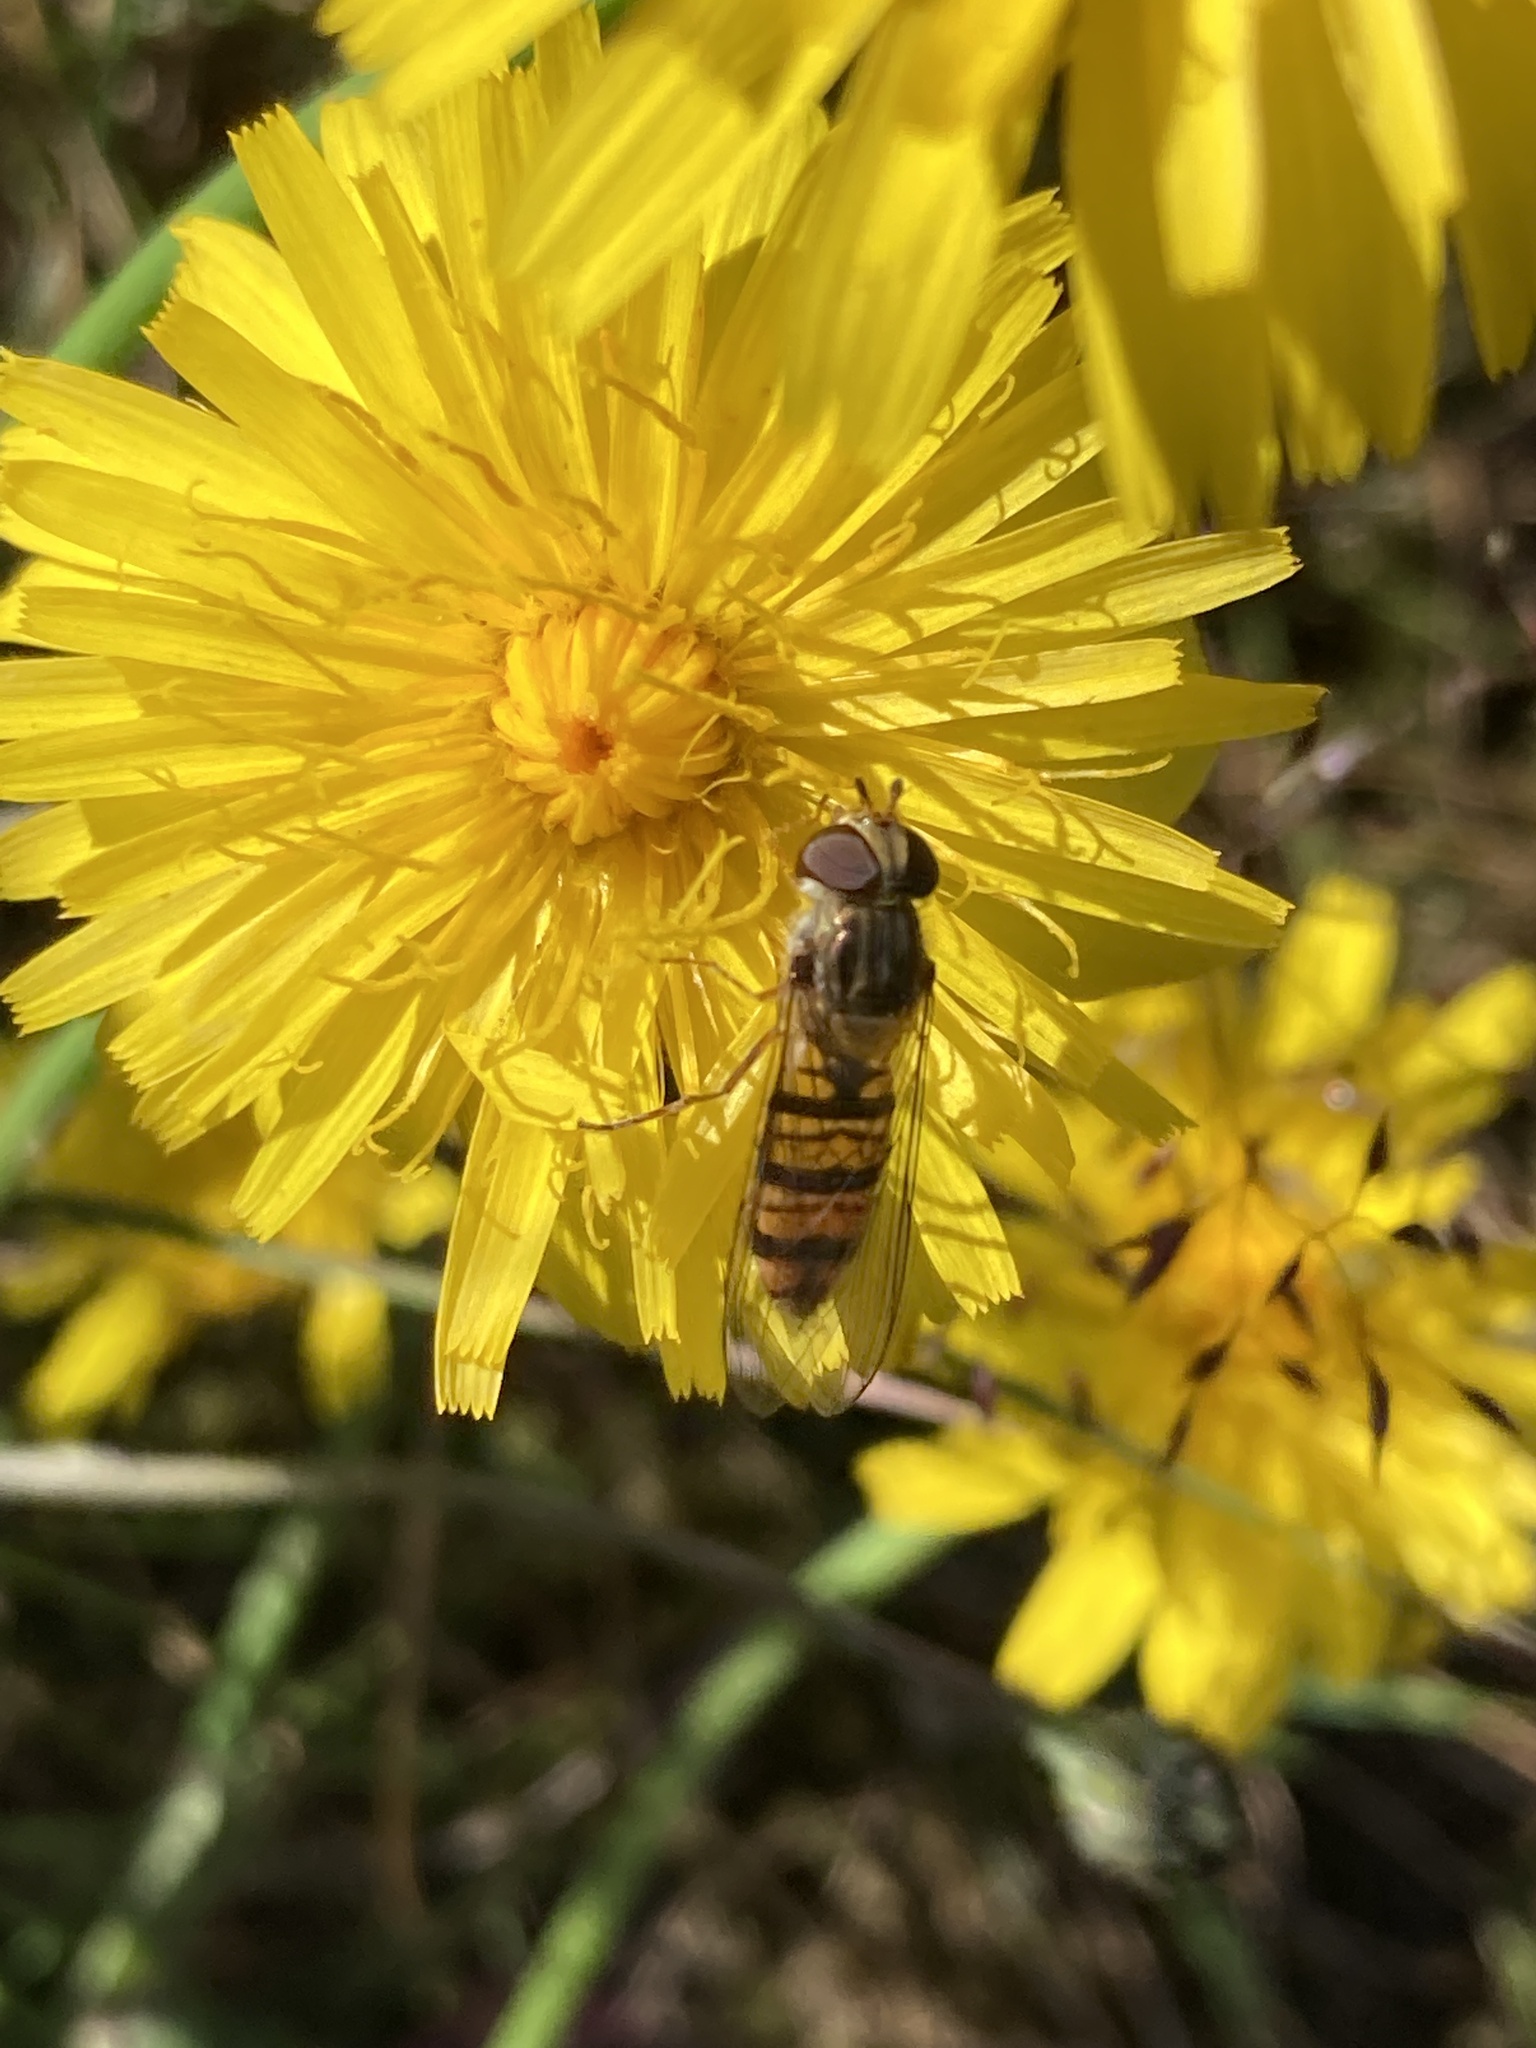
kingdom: Animalia
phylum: Arthropoda
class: Insecta
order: Diptera
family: Syrphidae
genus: Episyrphus
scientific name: Episyrphus balteatus
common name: Marmalade hoverfly
